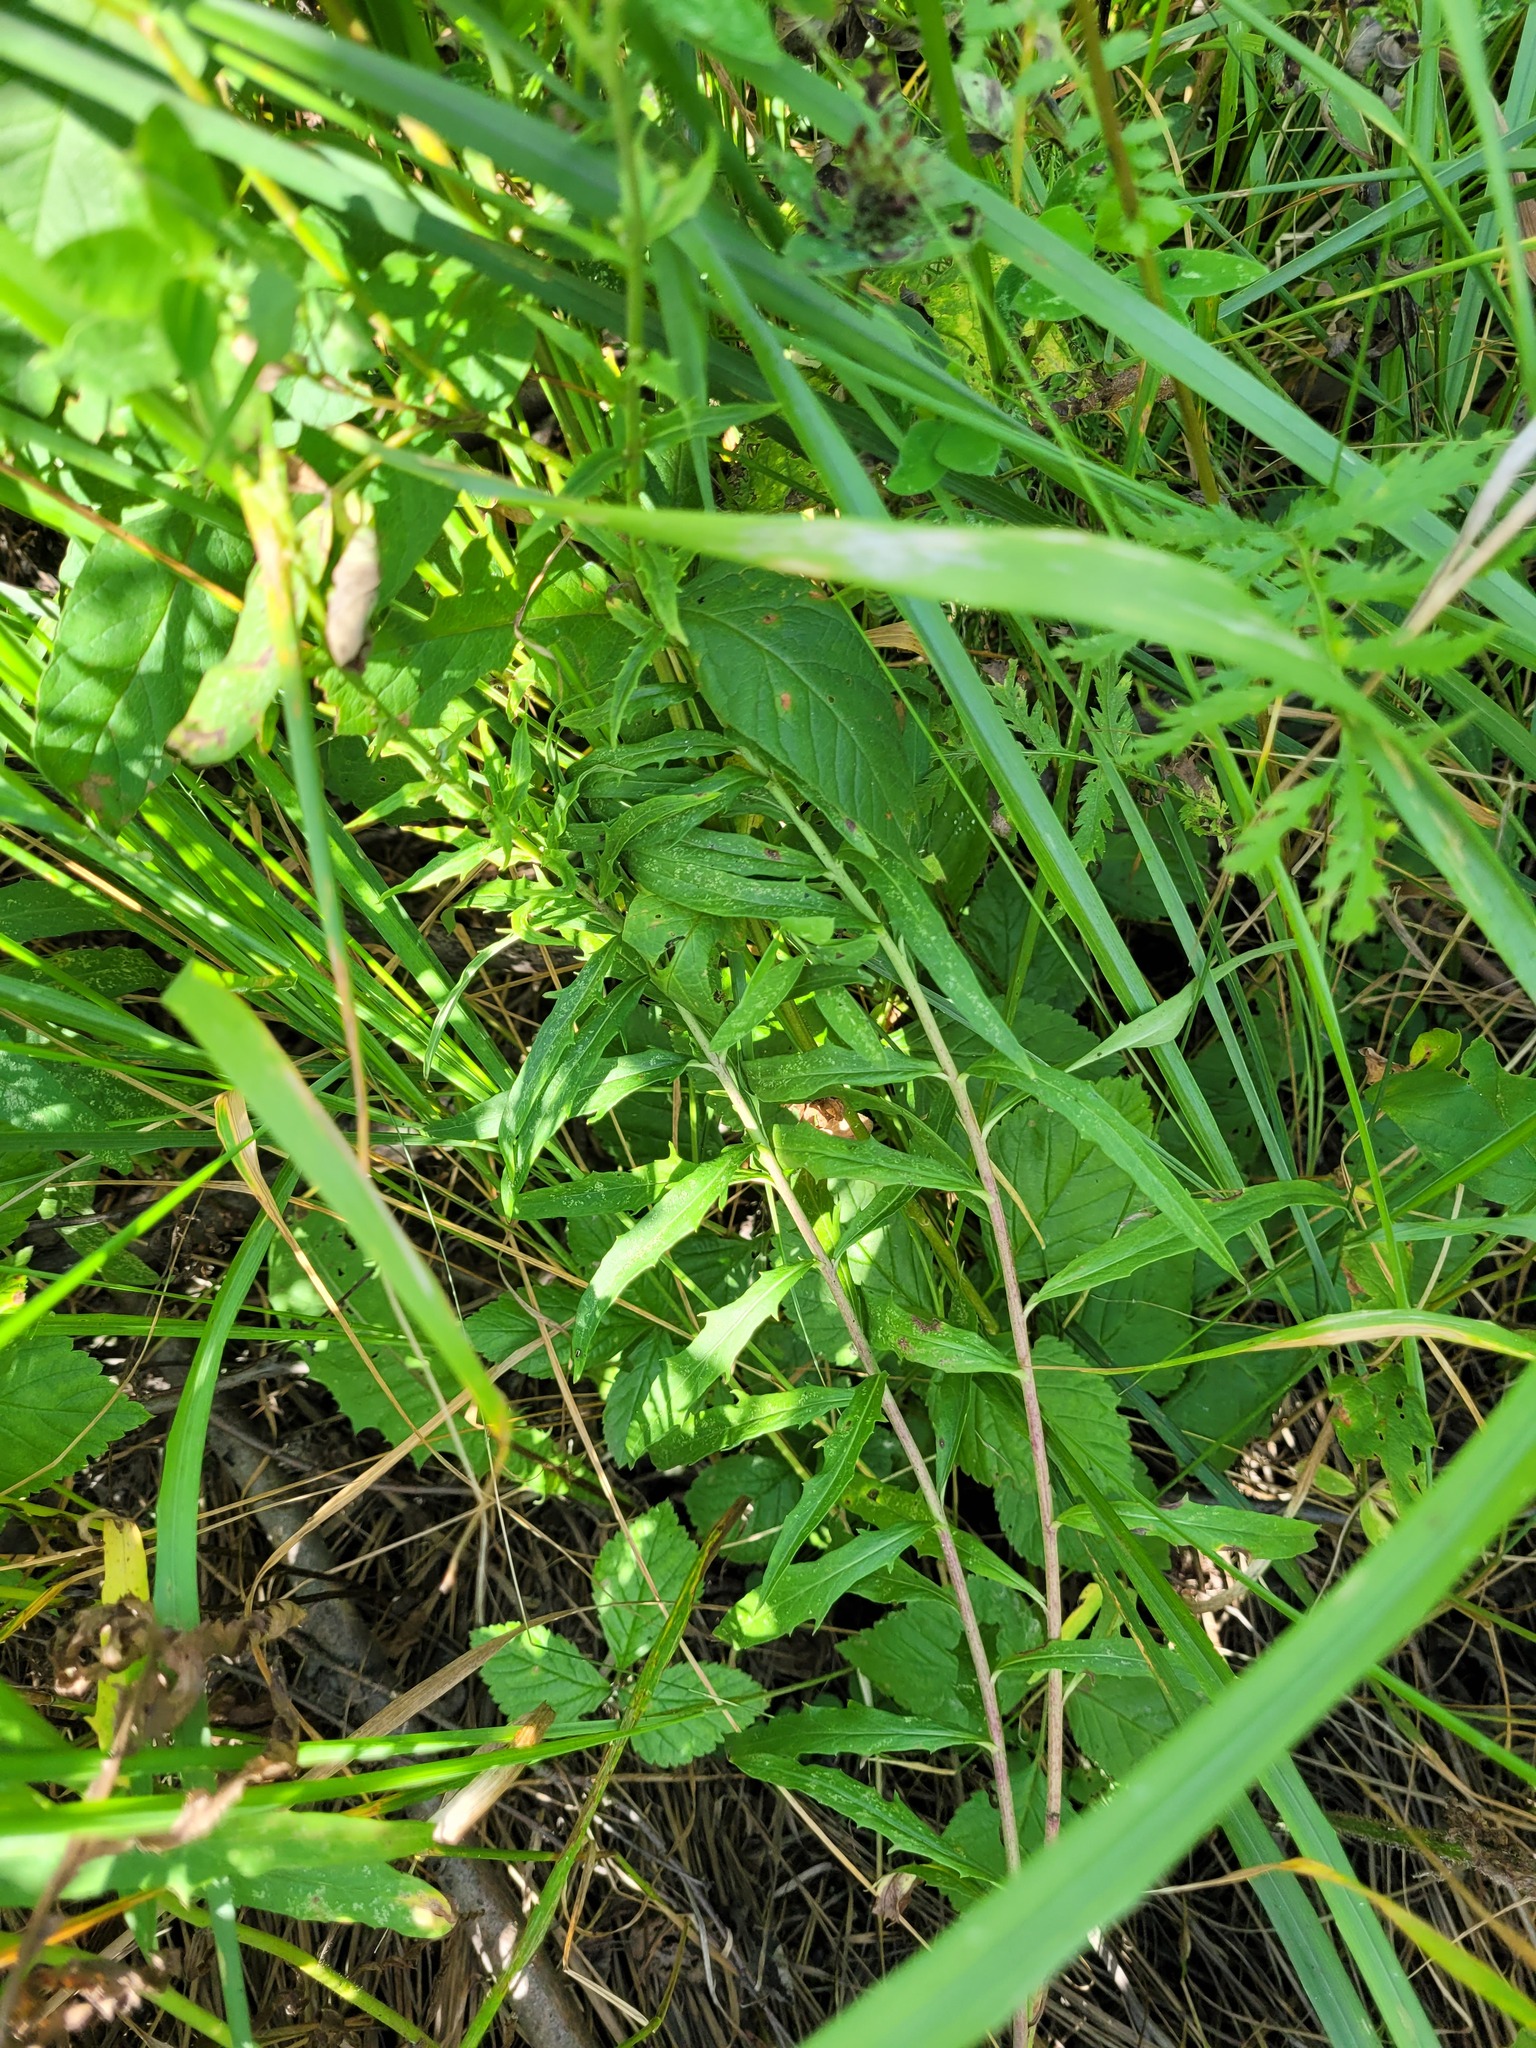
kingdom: Plantae
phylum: Tracheophyta
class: Magnoliopsida
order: Asterales
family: Asteraceae
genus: Hieracium
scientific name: Hieracium umbellatum
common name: Northern hawkweed
